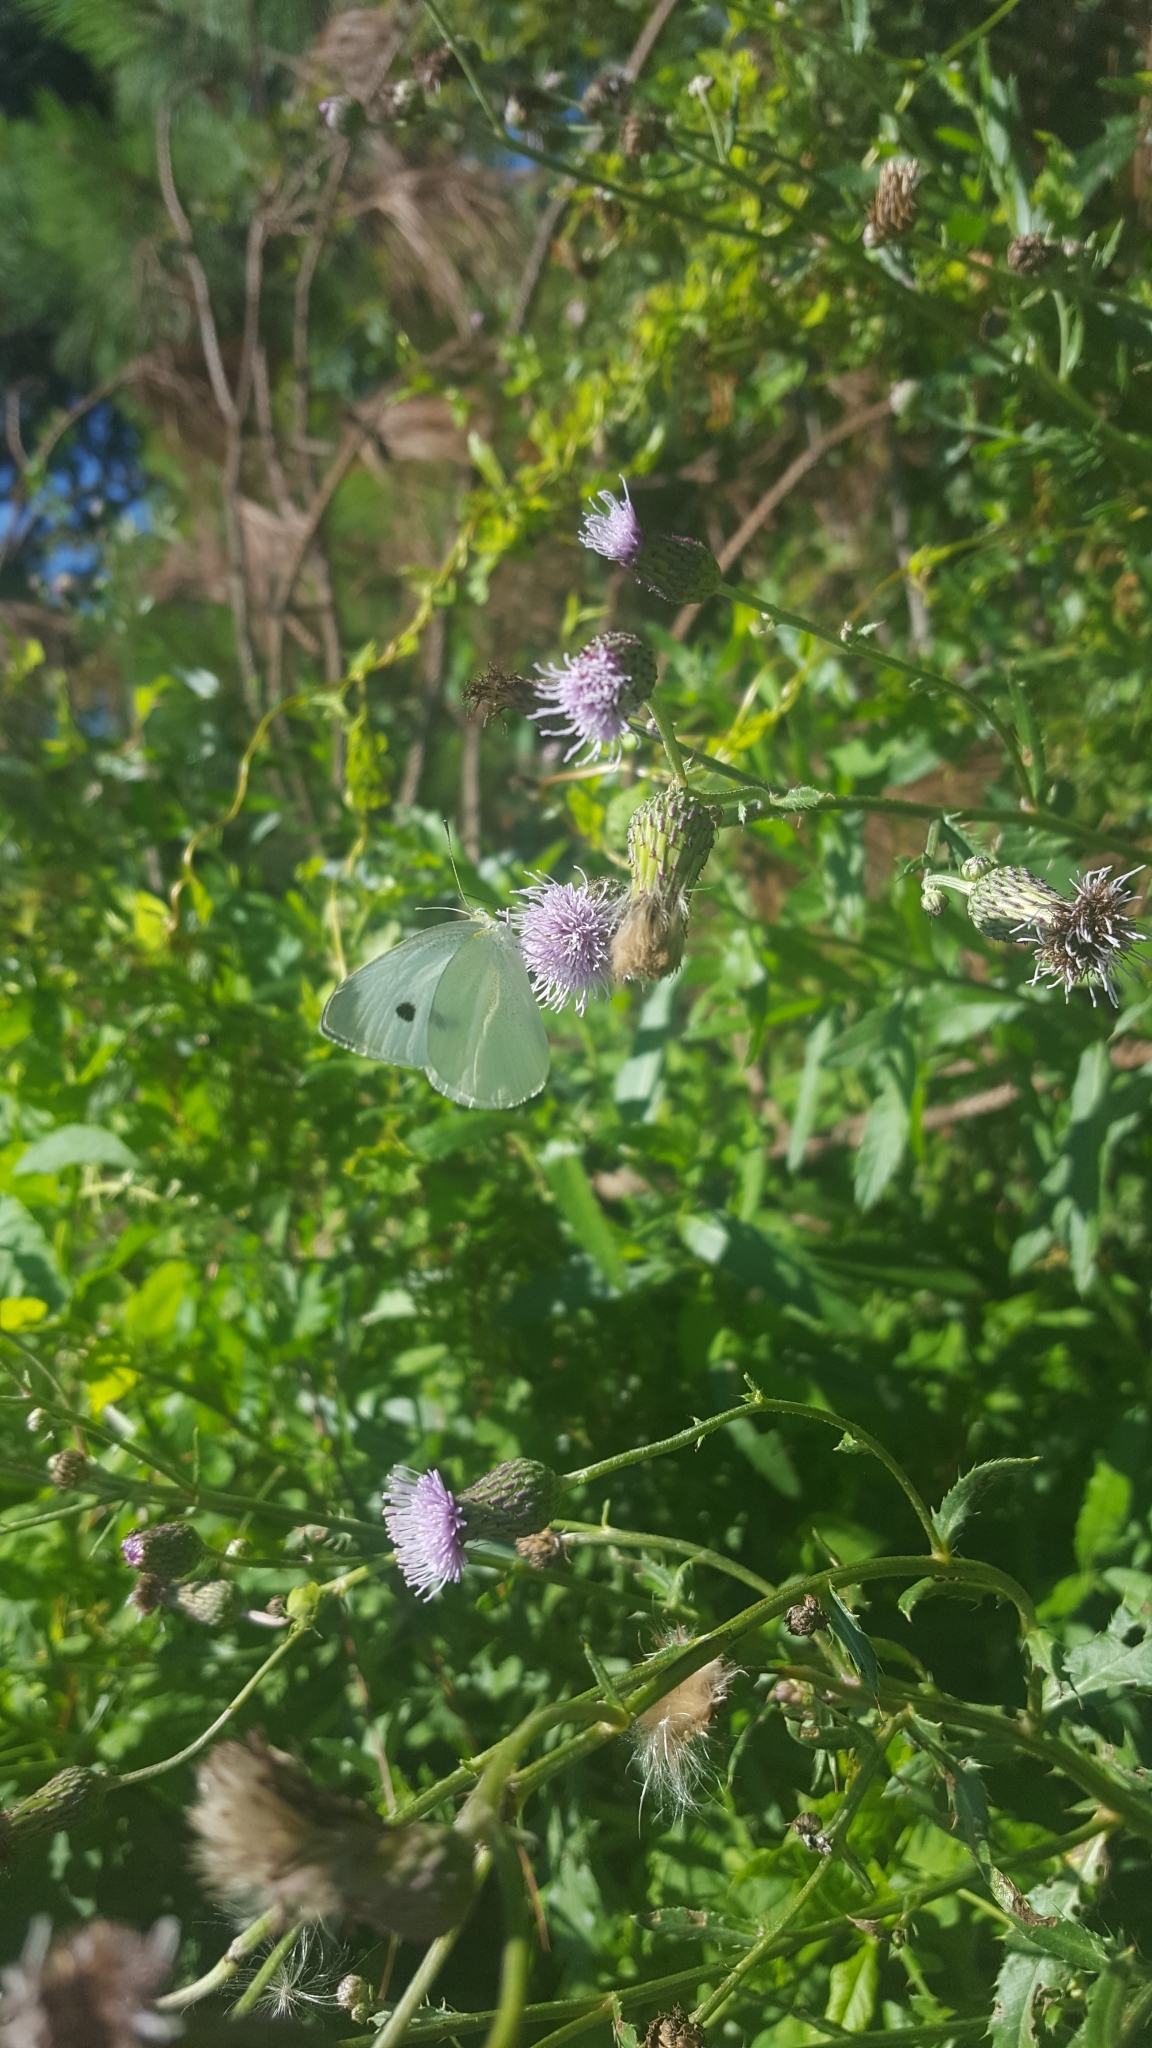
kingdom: Animalia
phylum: Arthropoda
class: Insecta
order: Lepidoptera
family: Pieridae
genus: Pieris
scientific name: Pieris rapae
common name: Small white
